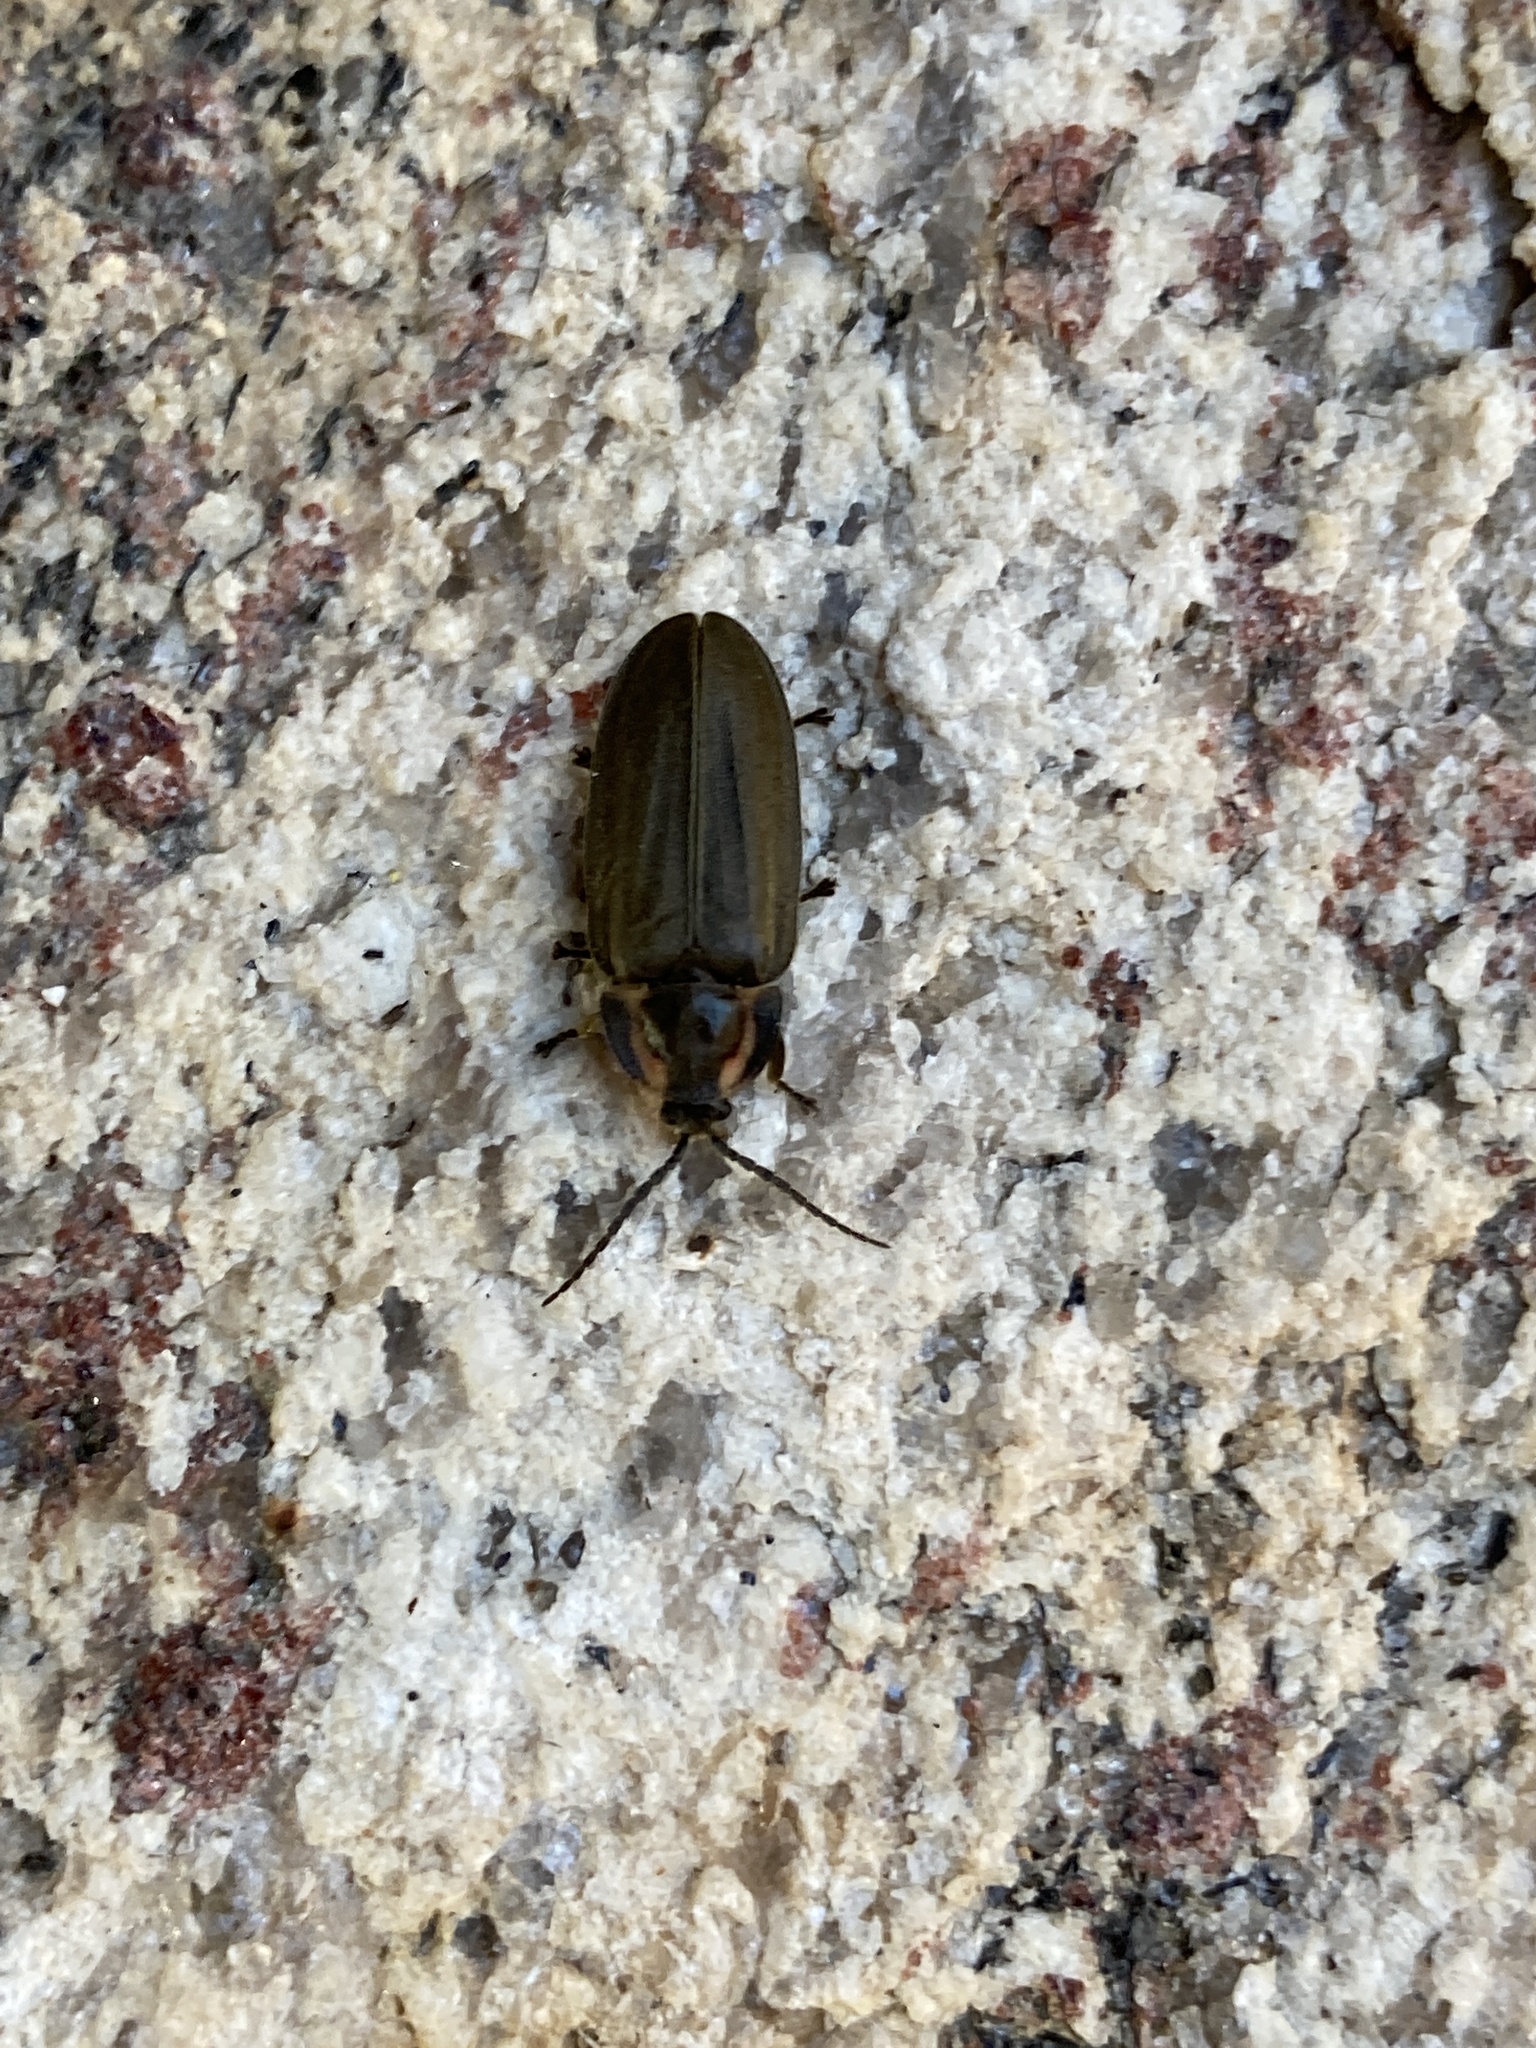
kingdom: Animalia
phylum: Arthropoda
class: Insecta
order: Coleoptera
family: Lampyridae
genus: Photinus
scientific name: Photinus corrusca
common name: Winter firefly
